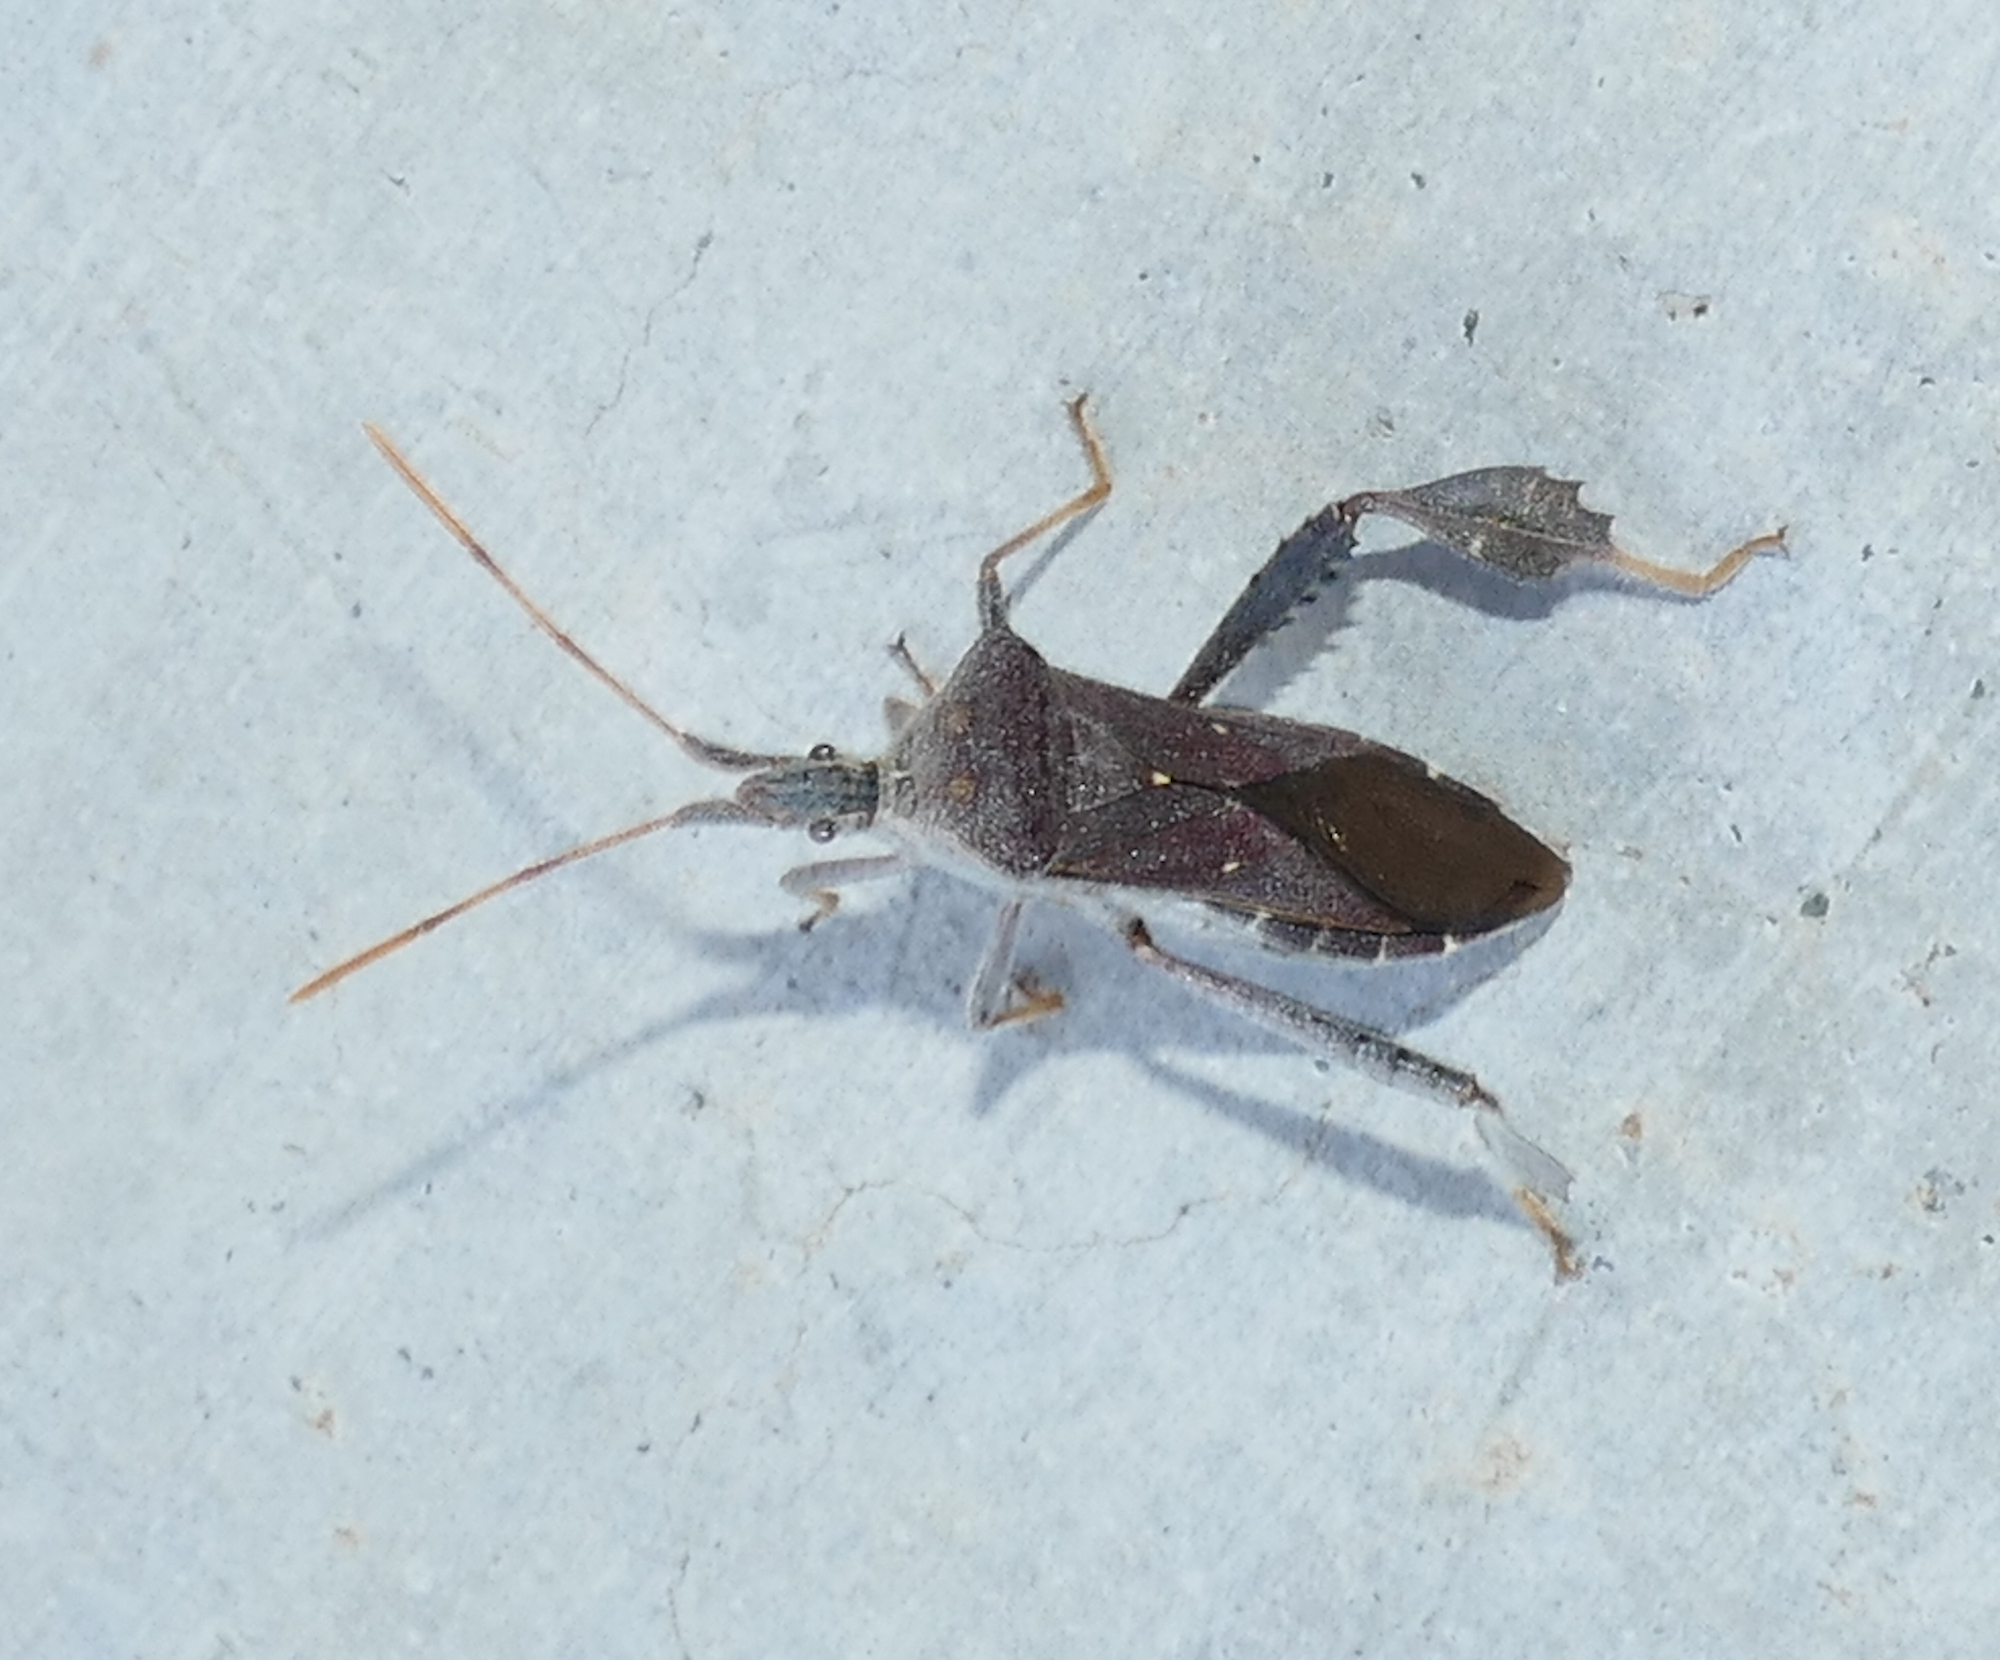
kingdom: Animalia
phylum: Arthropoda
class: Insecta
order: Hemiptera
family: Coreidae
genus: Leptoglossus
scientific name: Leptoglossus oppositus
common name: Northern leaf-footed bug
